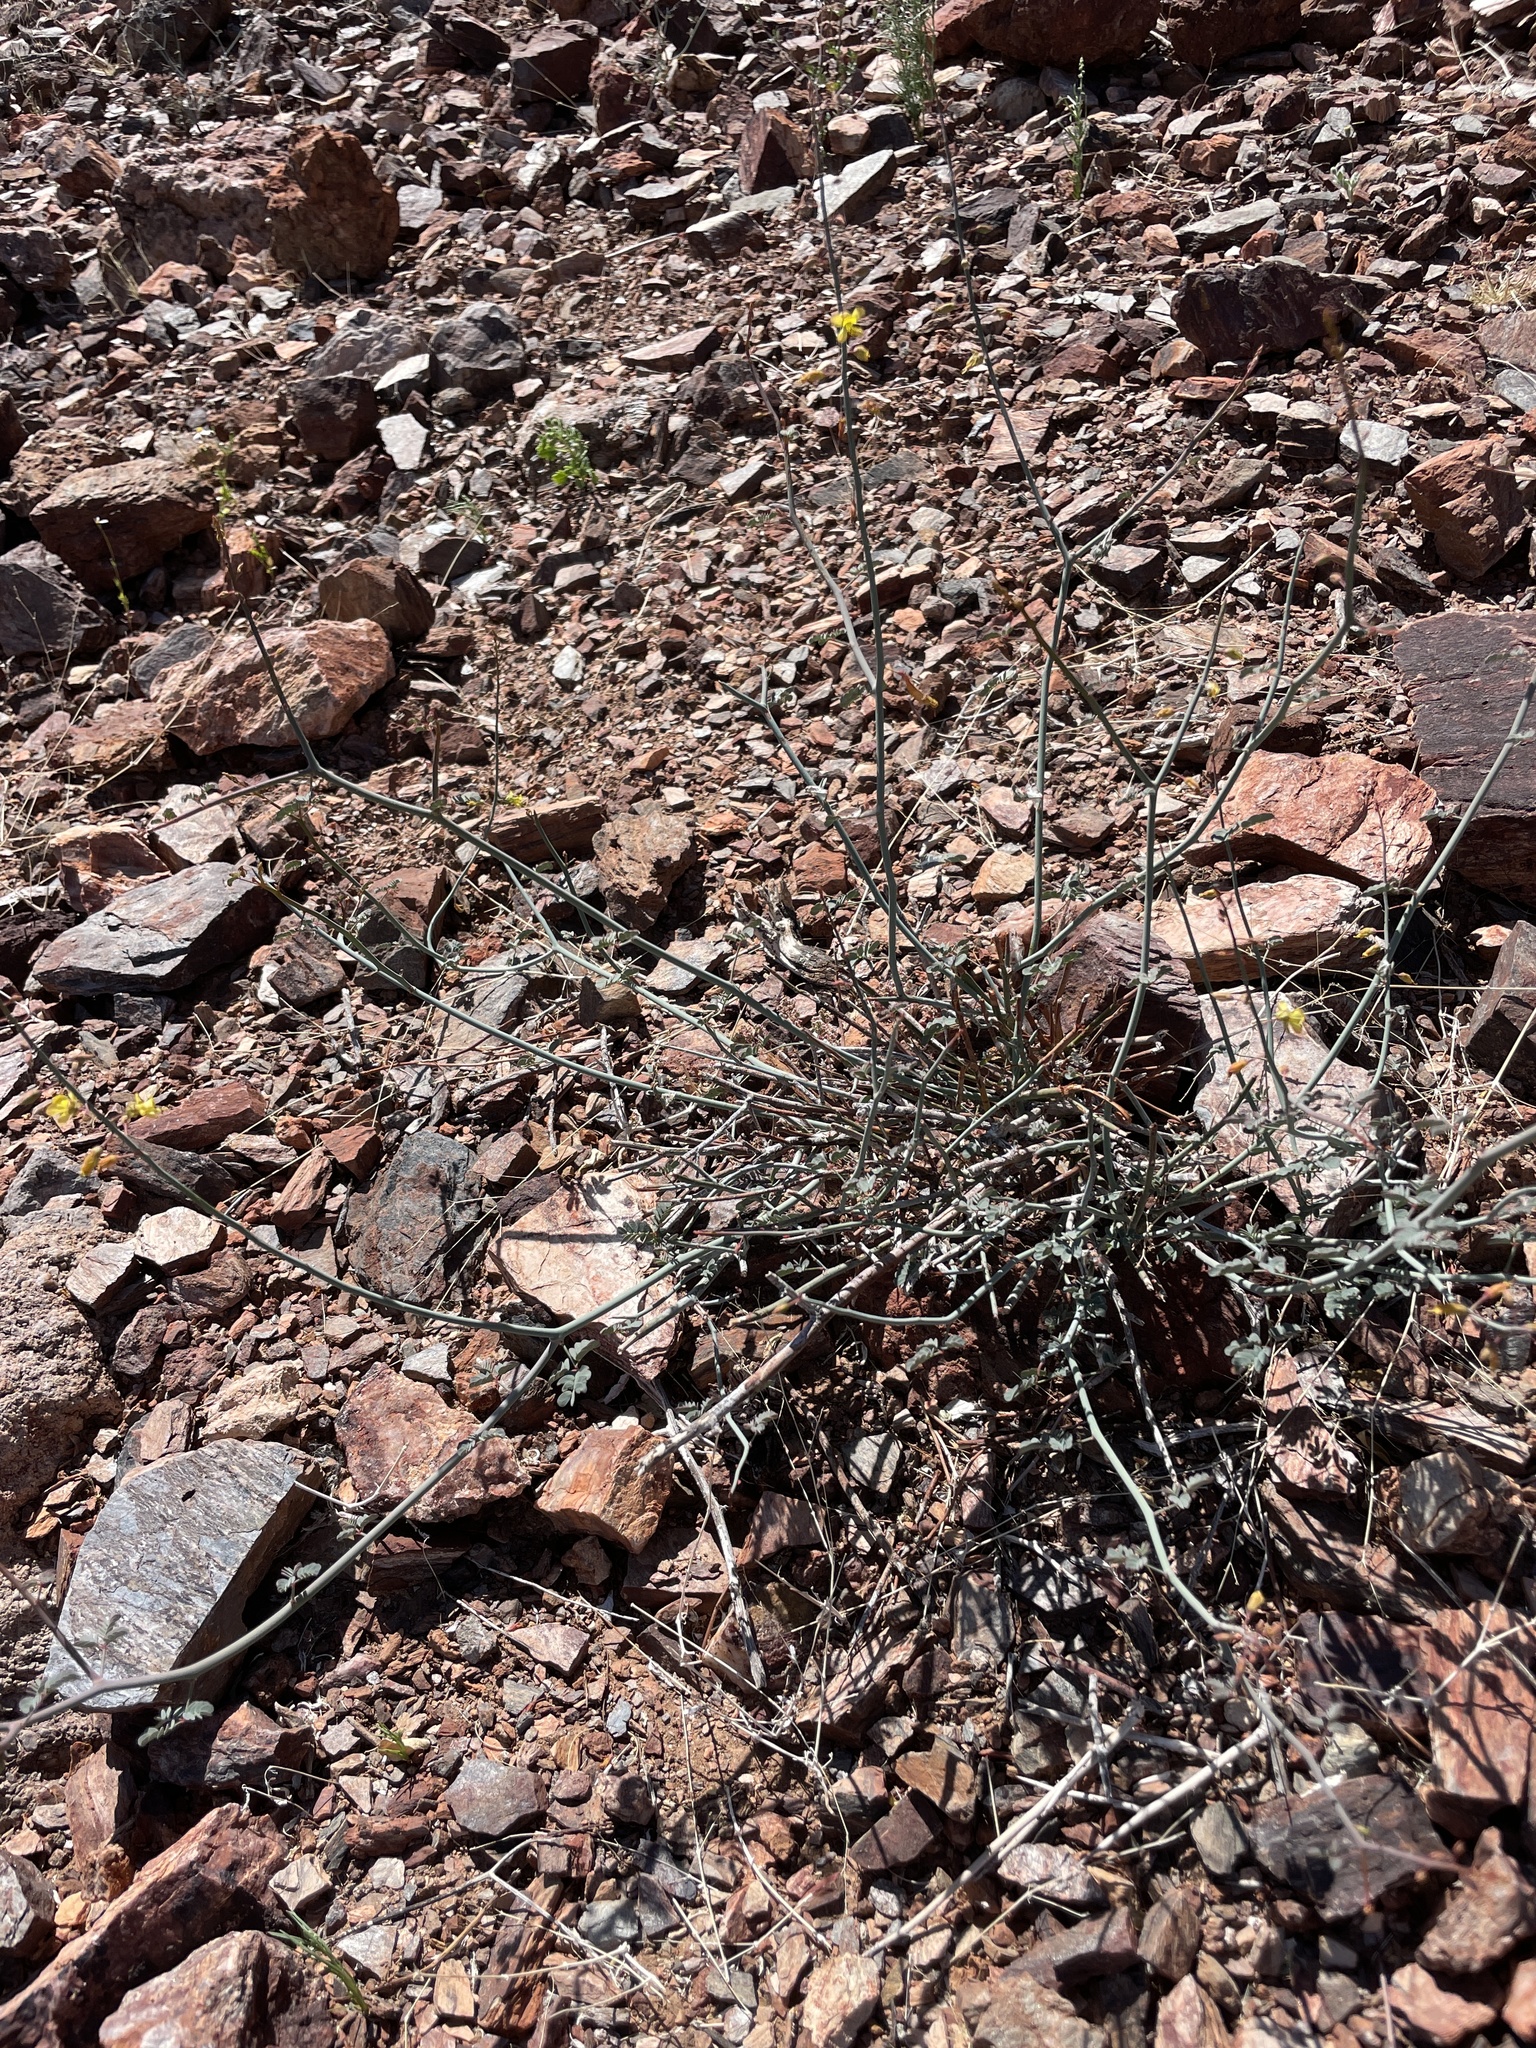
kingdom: Plantae
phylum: Tracheophyta
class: Magnoliopsida
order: Fabales
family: Fabaceae
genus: Hoffmannseggia
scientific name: Hoffmannseggia intricata
